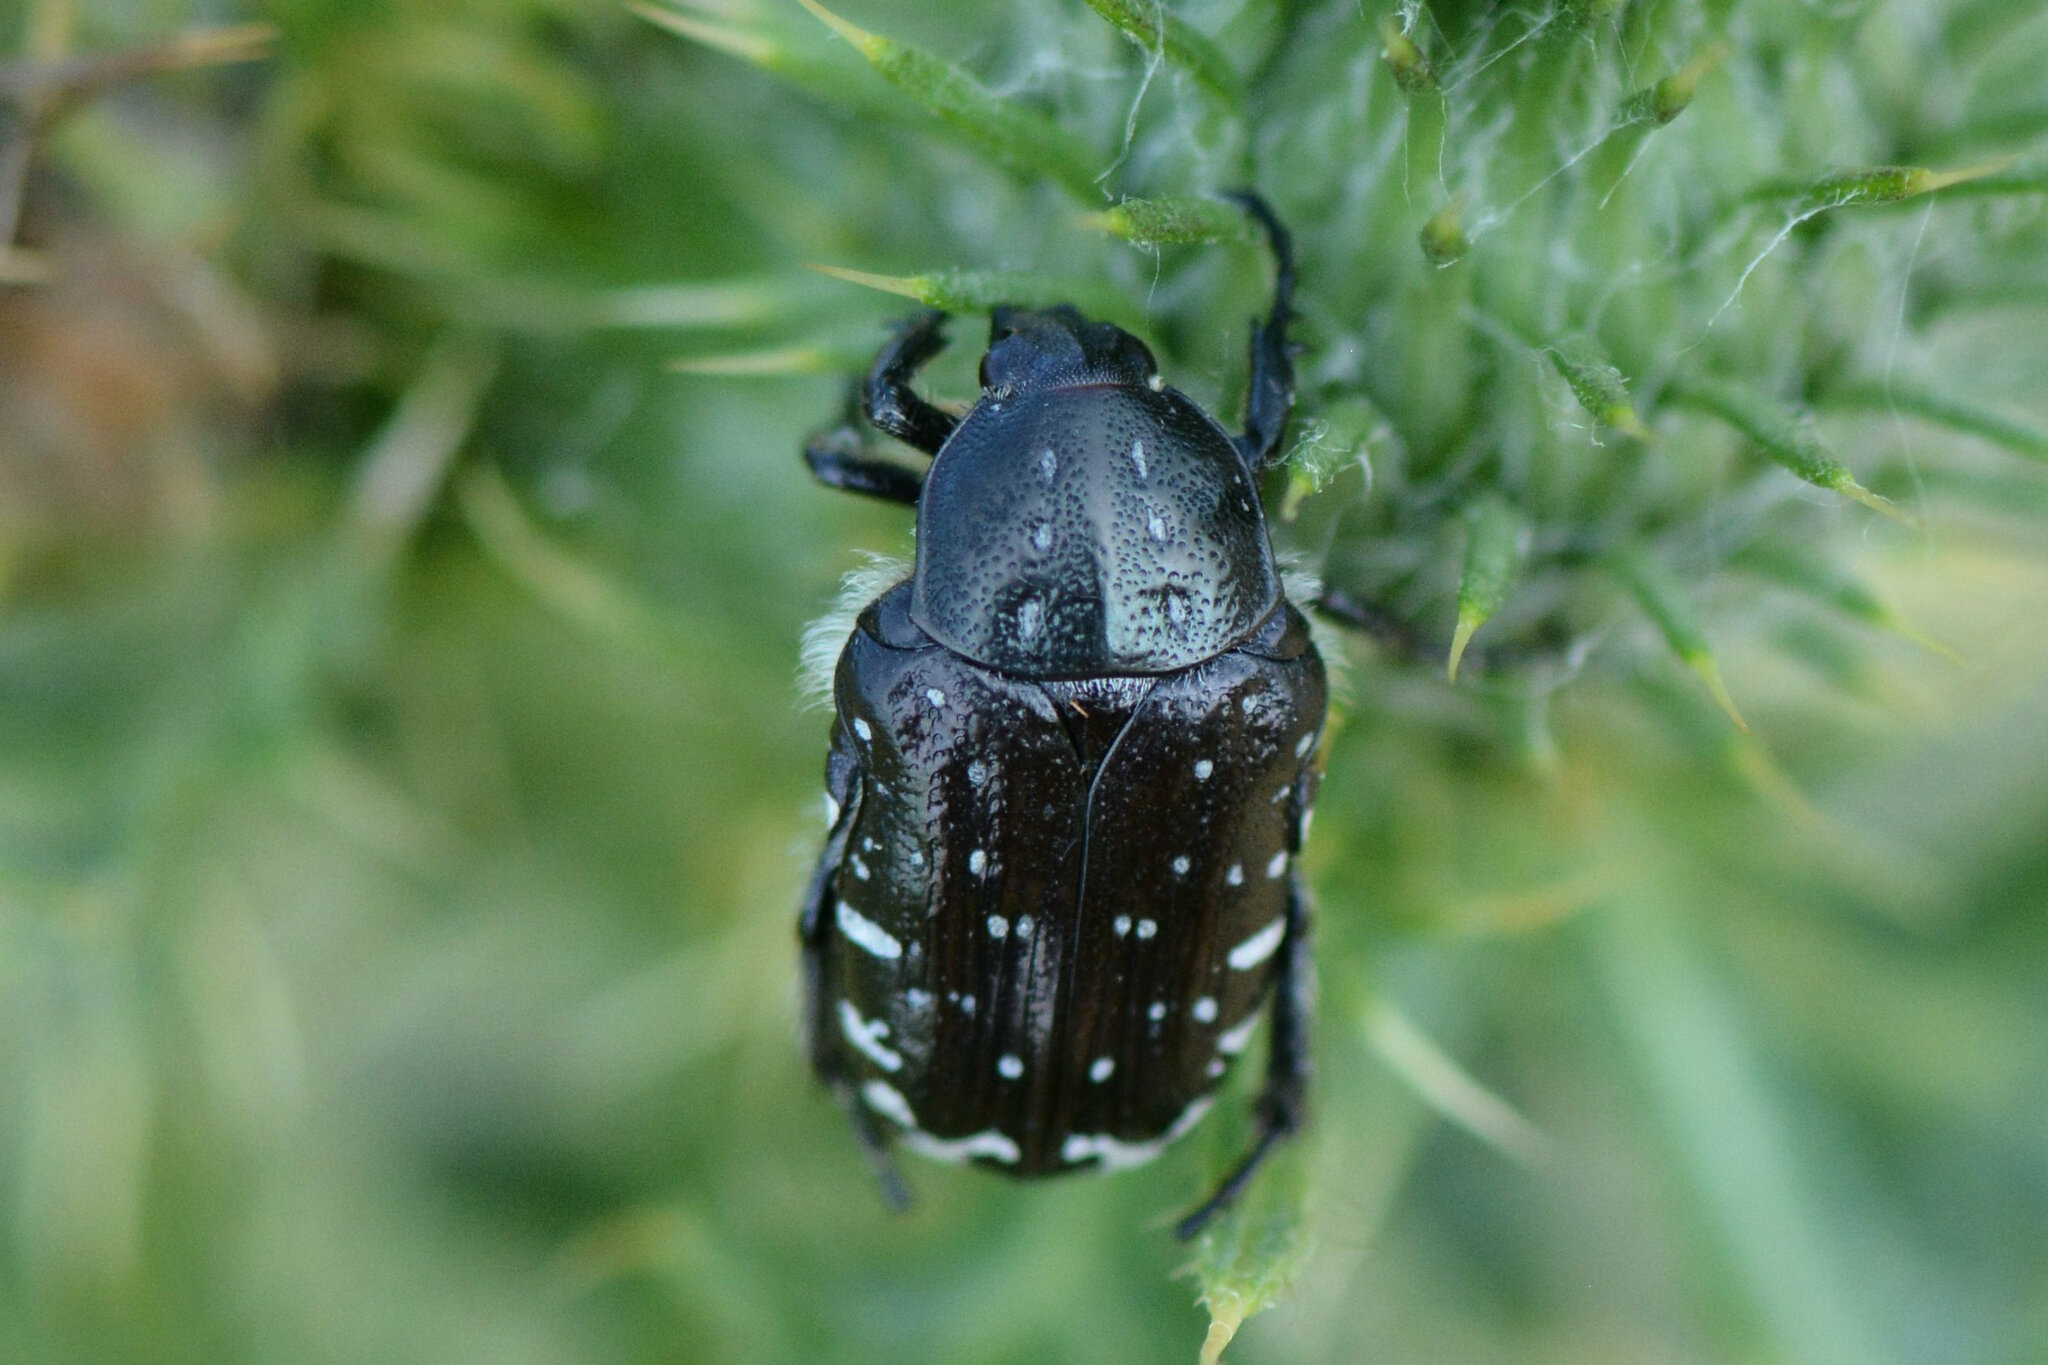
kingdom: Animalia
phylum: Arthropoda
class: Insecta
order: Coleoptera
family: Scarabaeidae
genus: Oxythyrea
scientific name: Oxythyrea funesta
